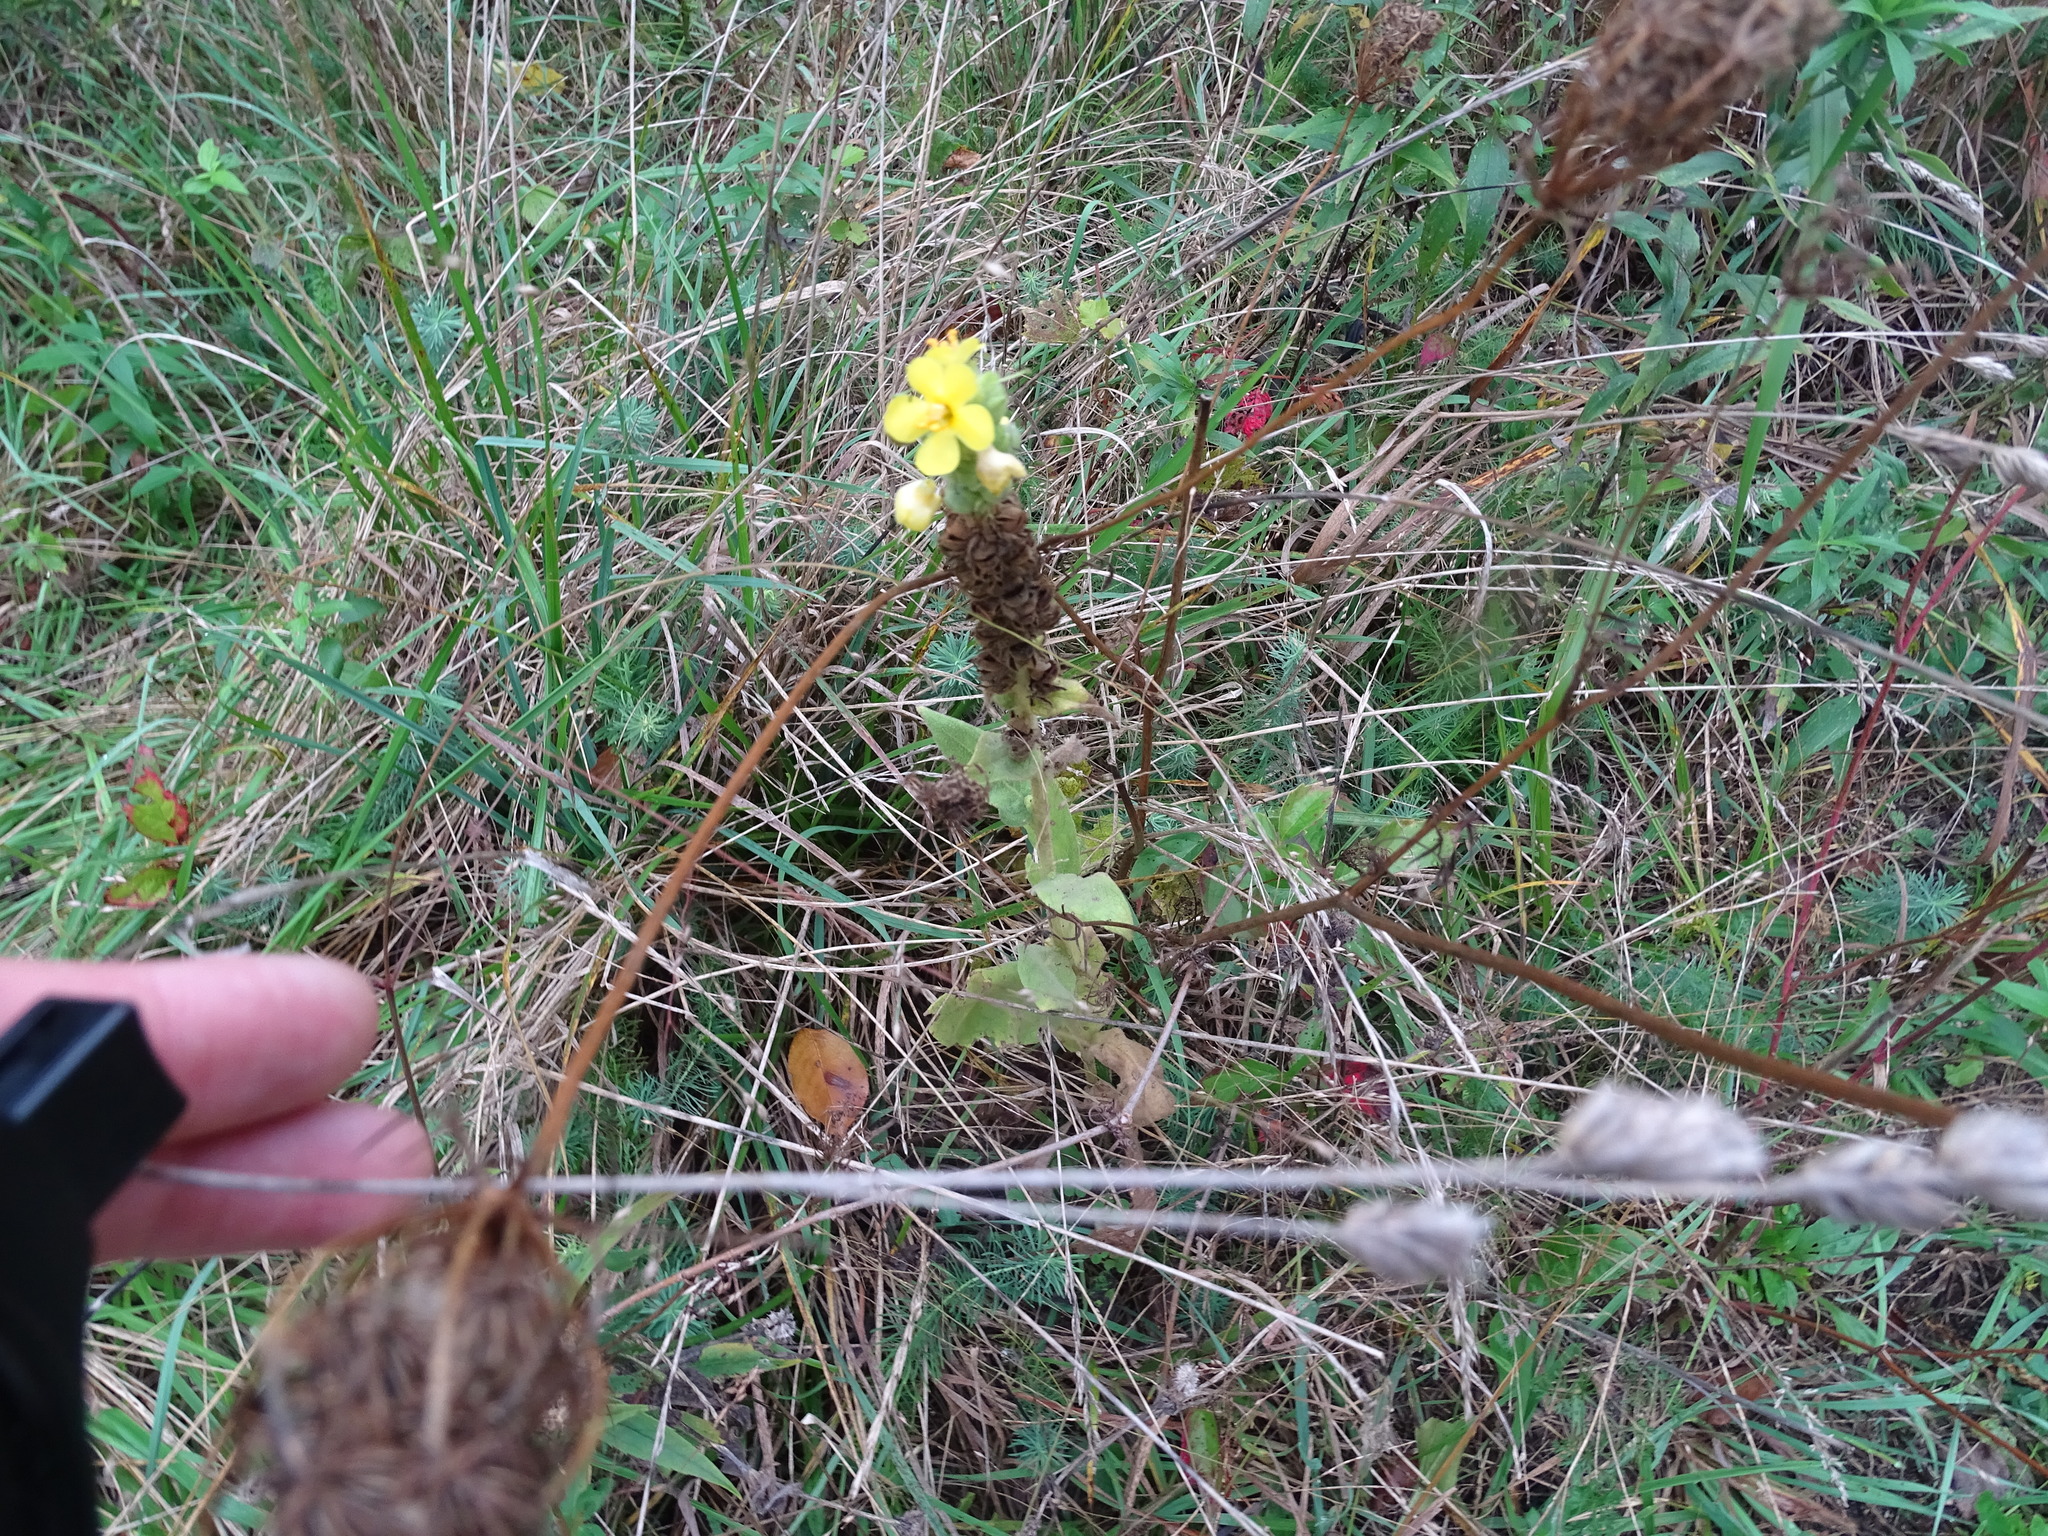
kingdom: Plantae
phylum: Tracheophyta
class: Magnoliopsida
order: Lamiales
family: Scrophulariaceae
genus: Verbascum
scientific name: Verbascum thapsus
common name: Common mullein
